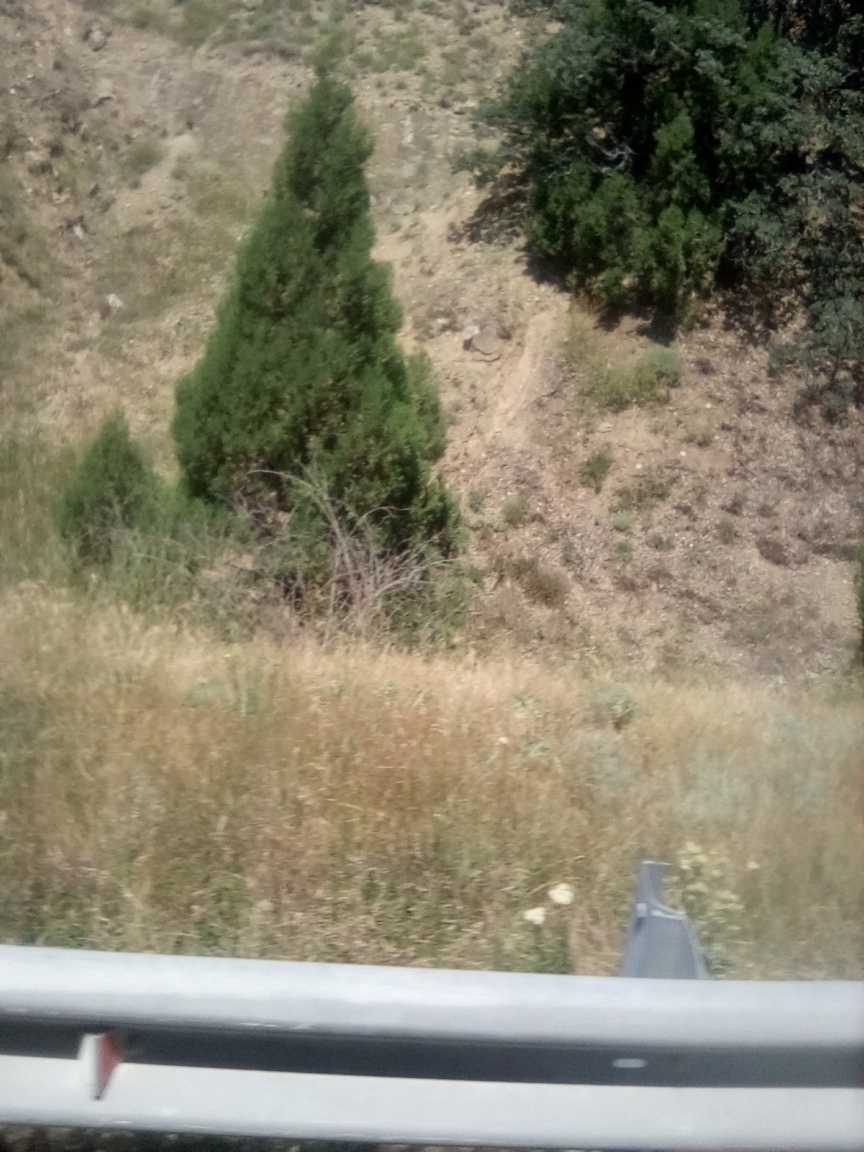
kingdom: Plantae
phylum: Tracheophyta
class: Pinopsida
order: Pinales
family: Cupressaceae
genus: Juniperus
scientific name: Juniperus excelsa
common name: Crimean juniper
